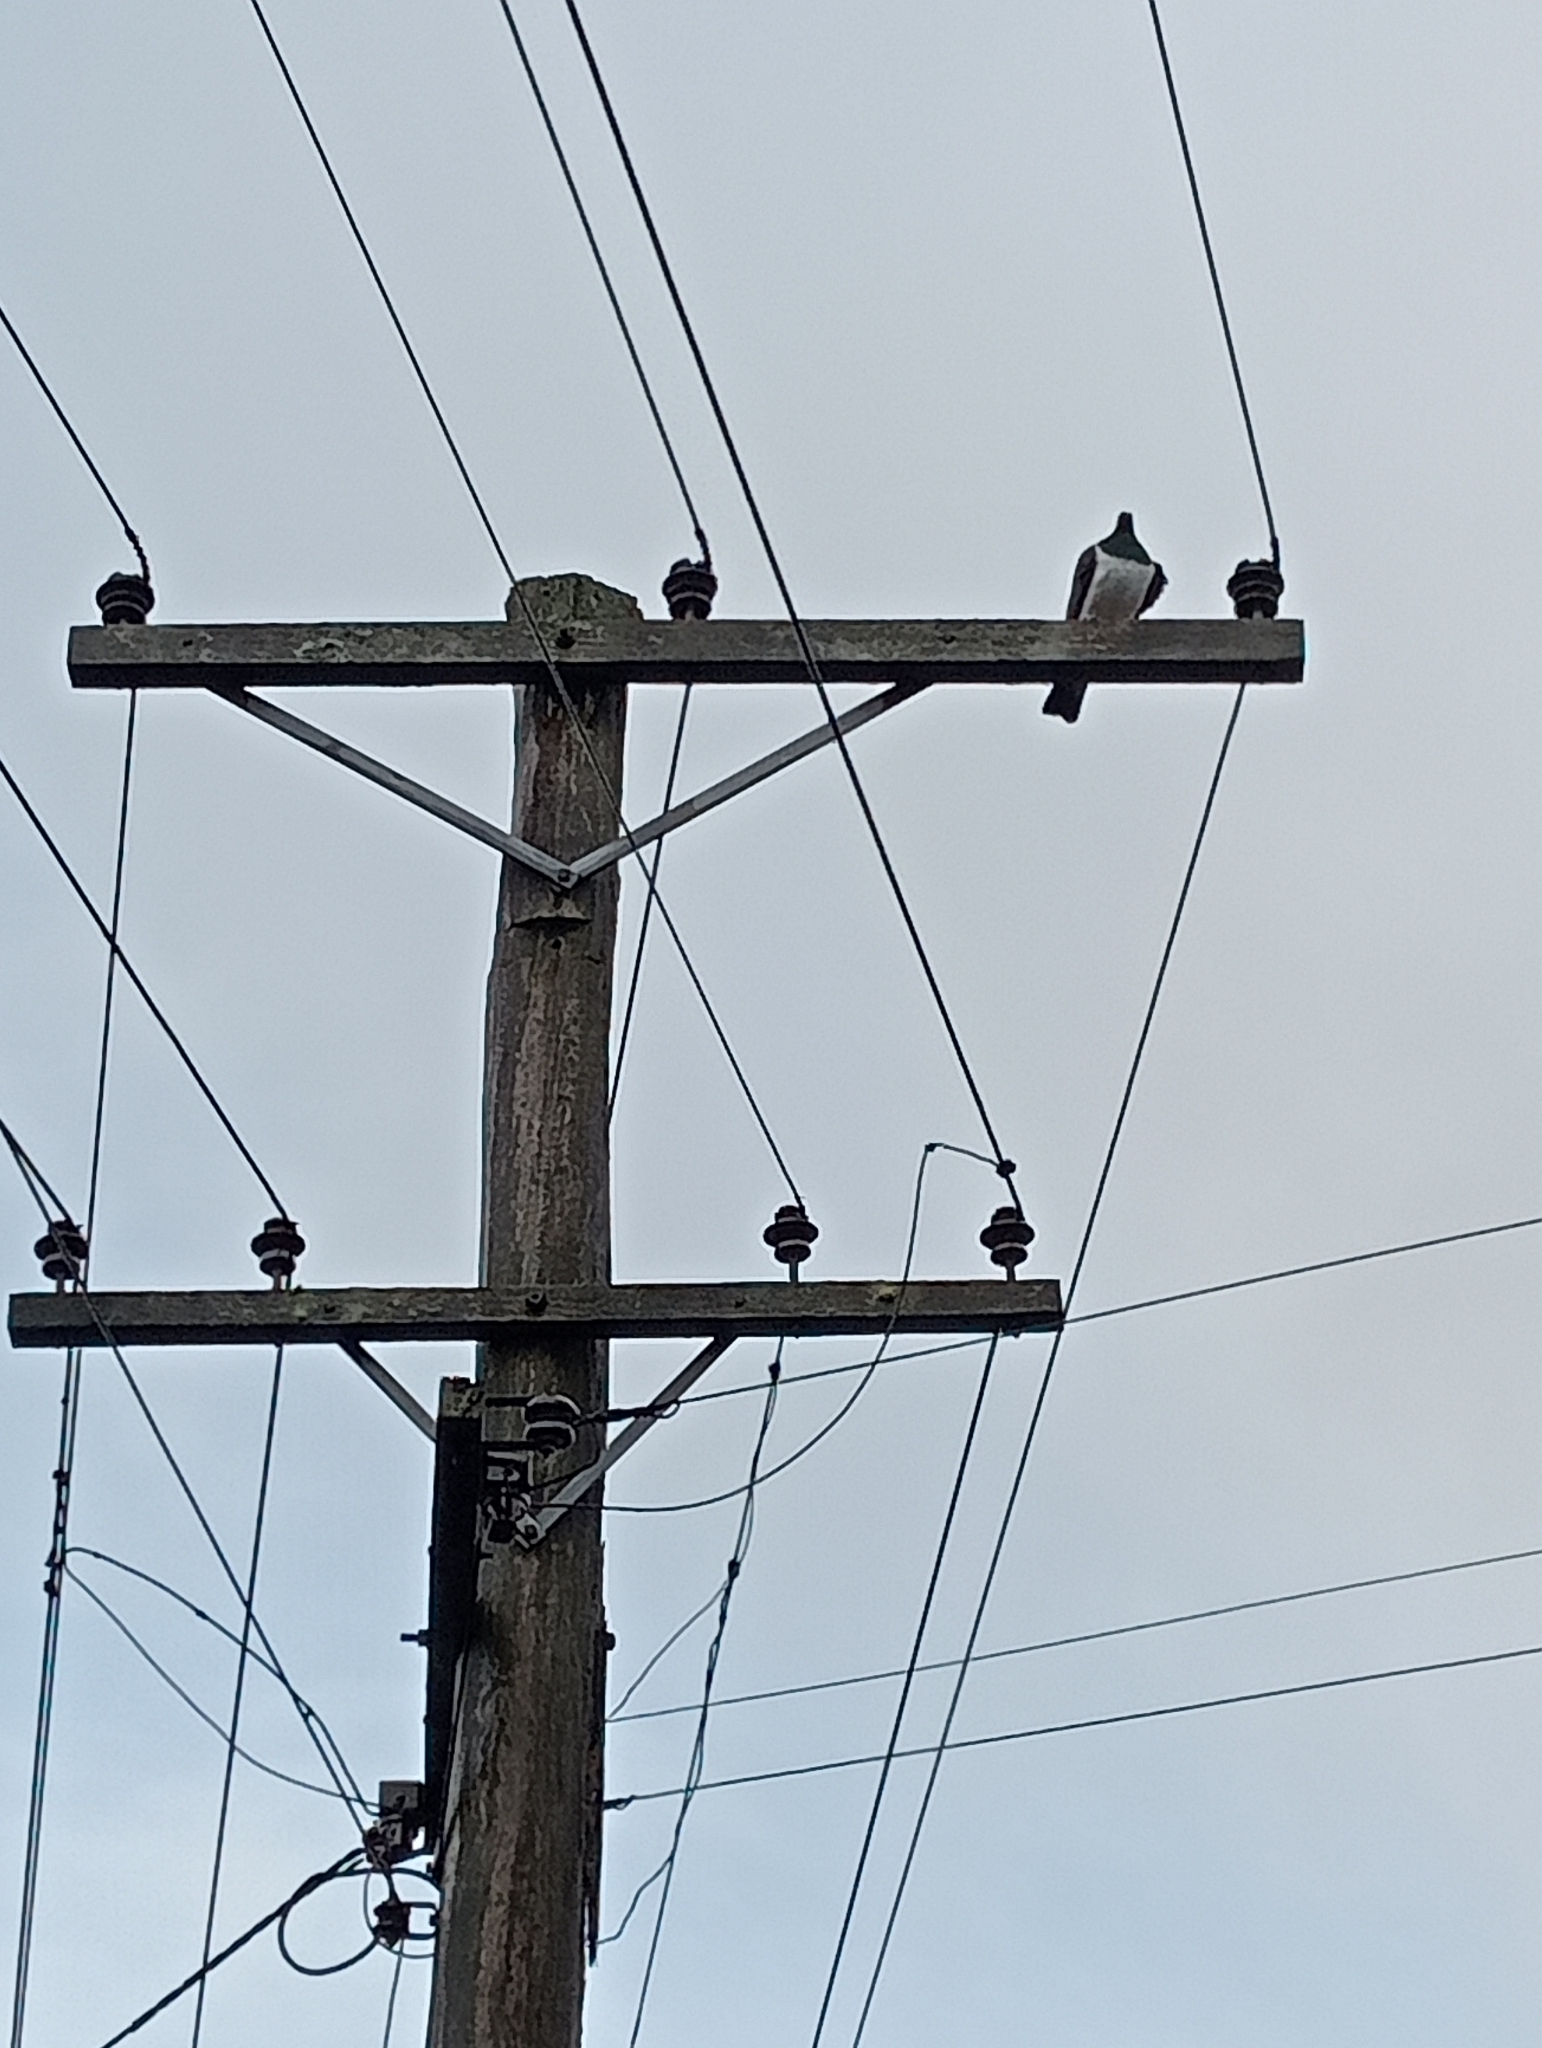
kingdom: Animalia
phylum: Chordata
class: Aves
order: Columbiformes
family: Columbidae
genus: Hemiphaga
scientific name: Hemiphaga novaeseelandiae
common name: New zealand pigeon
